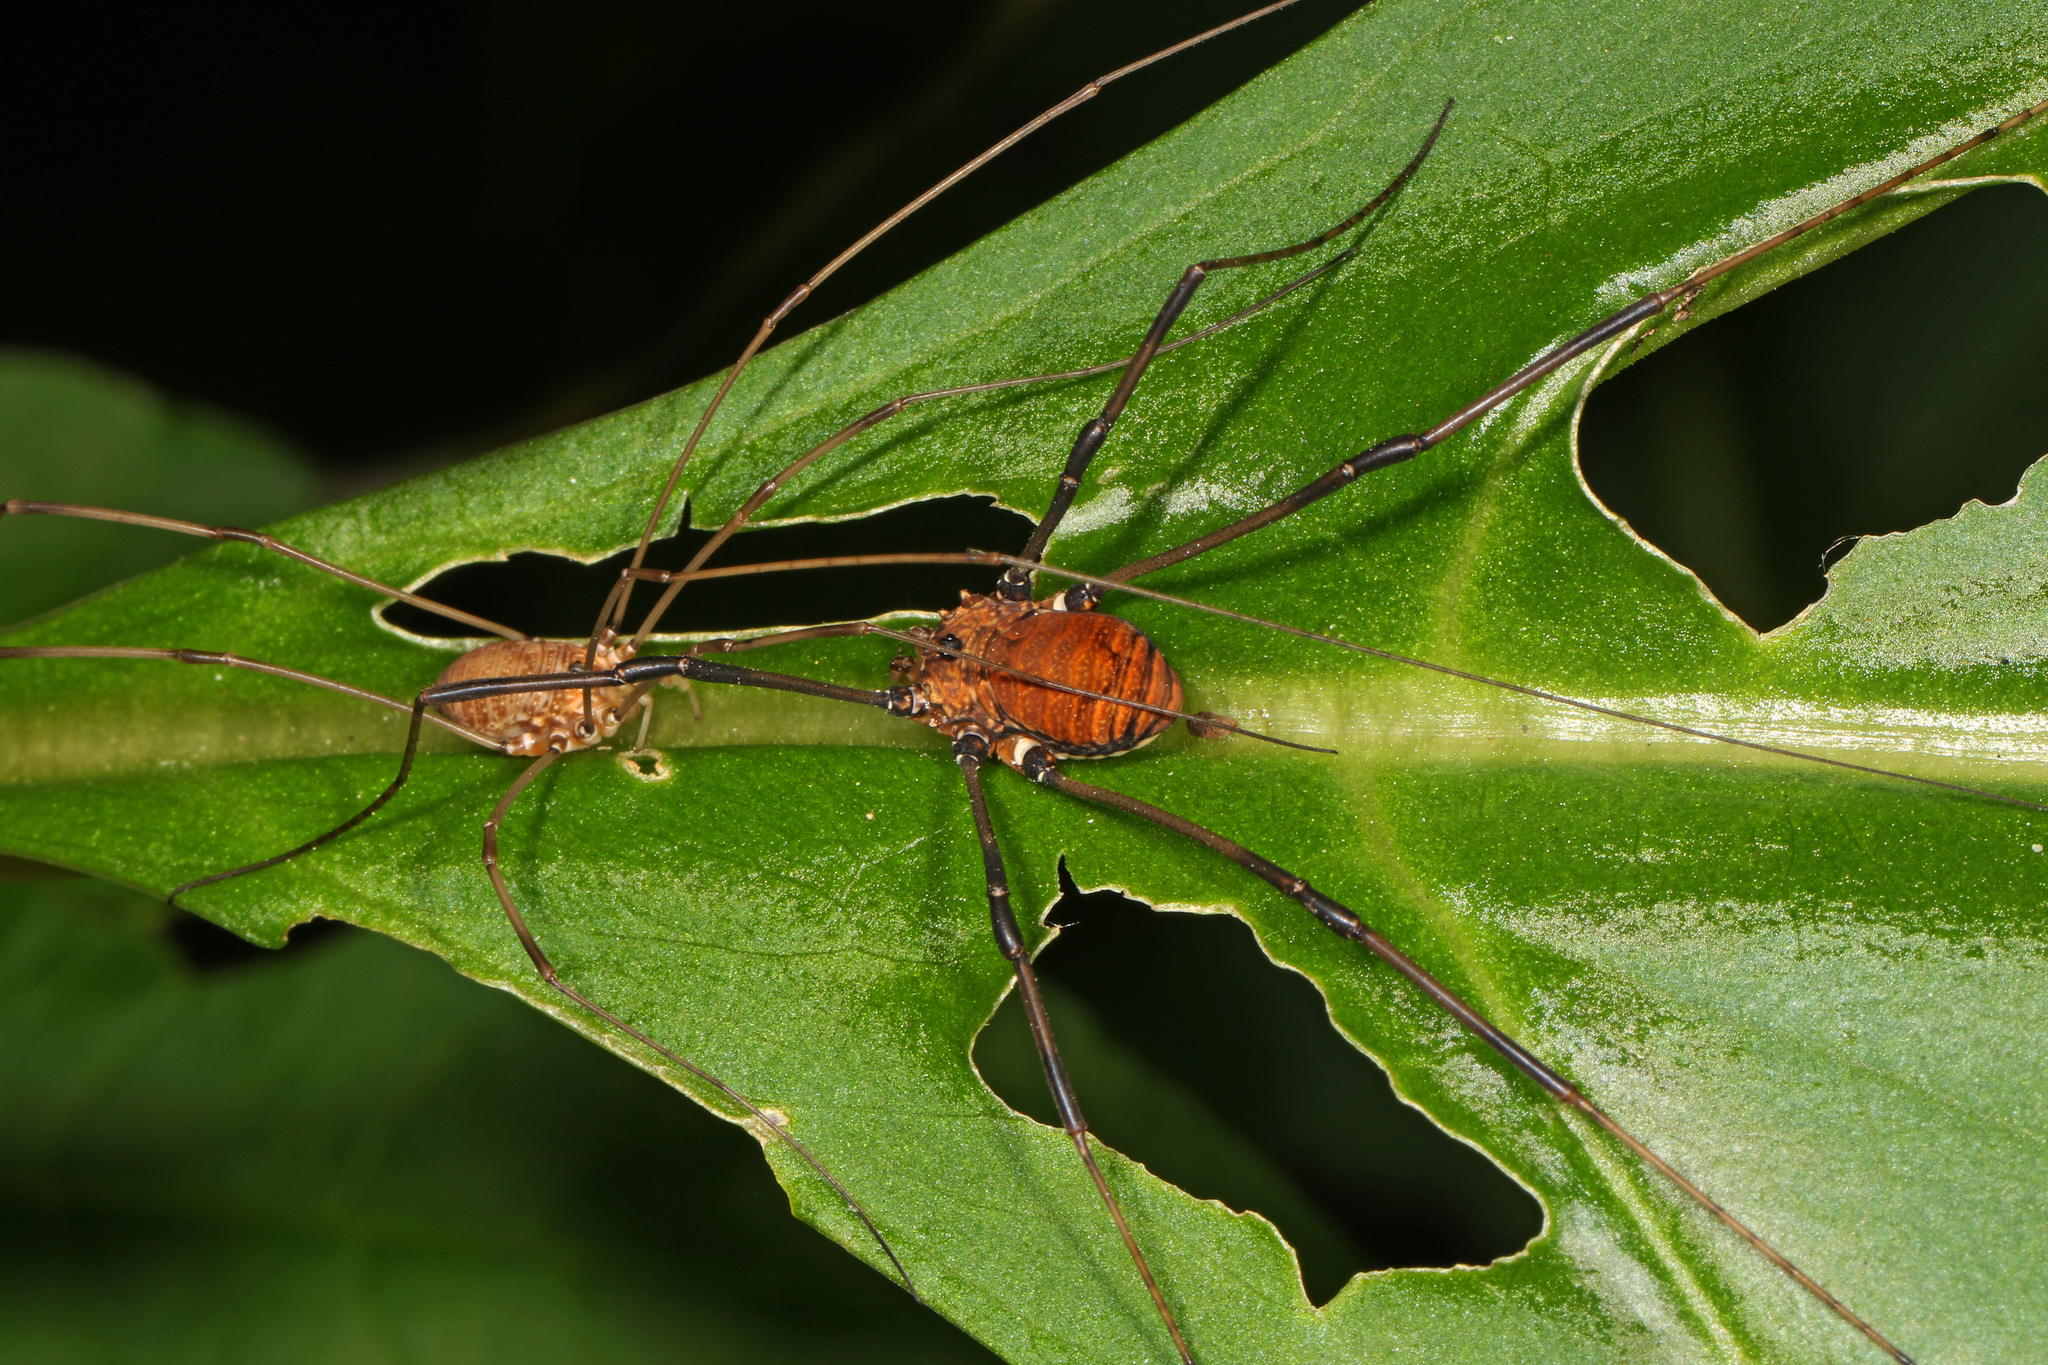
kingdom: Animalia
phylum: Arthropoda
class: Arachnida
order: Opiliones
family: Sclerosomatidae
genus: Leiobunum
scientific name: Leiobunum verrucosum
